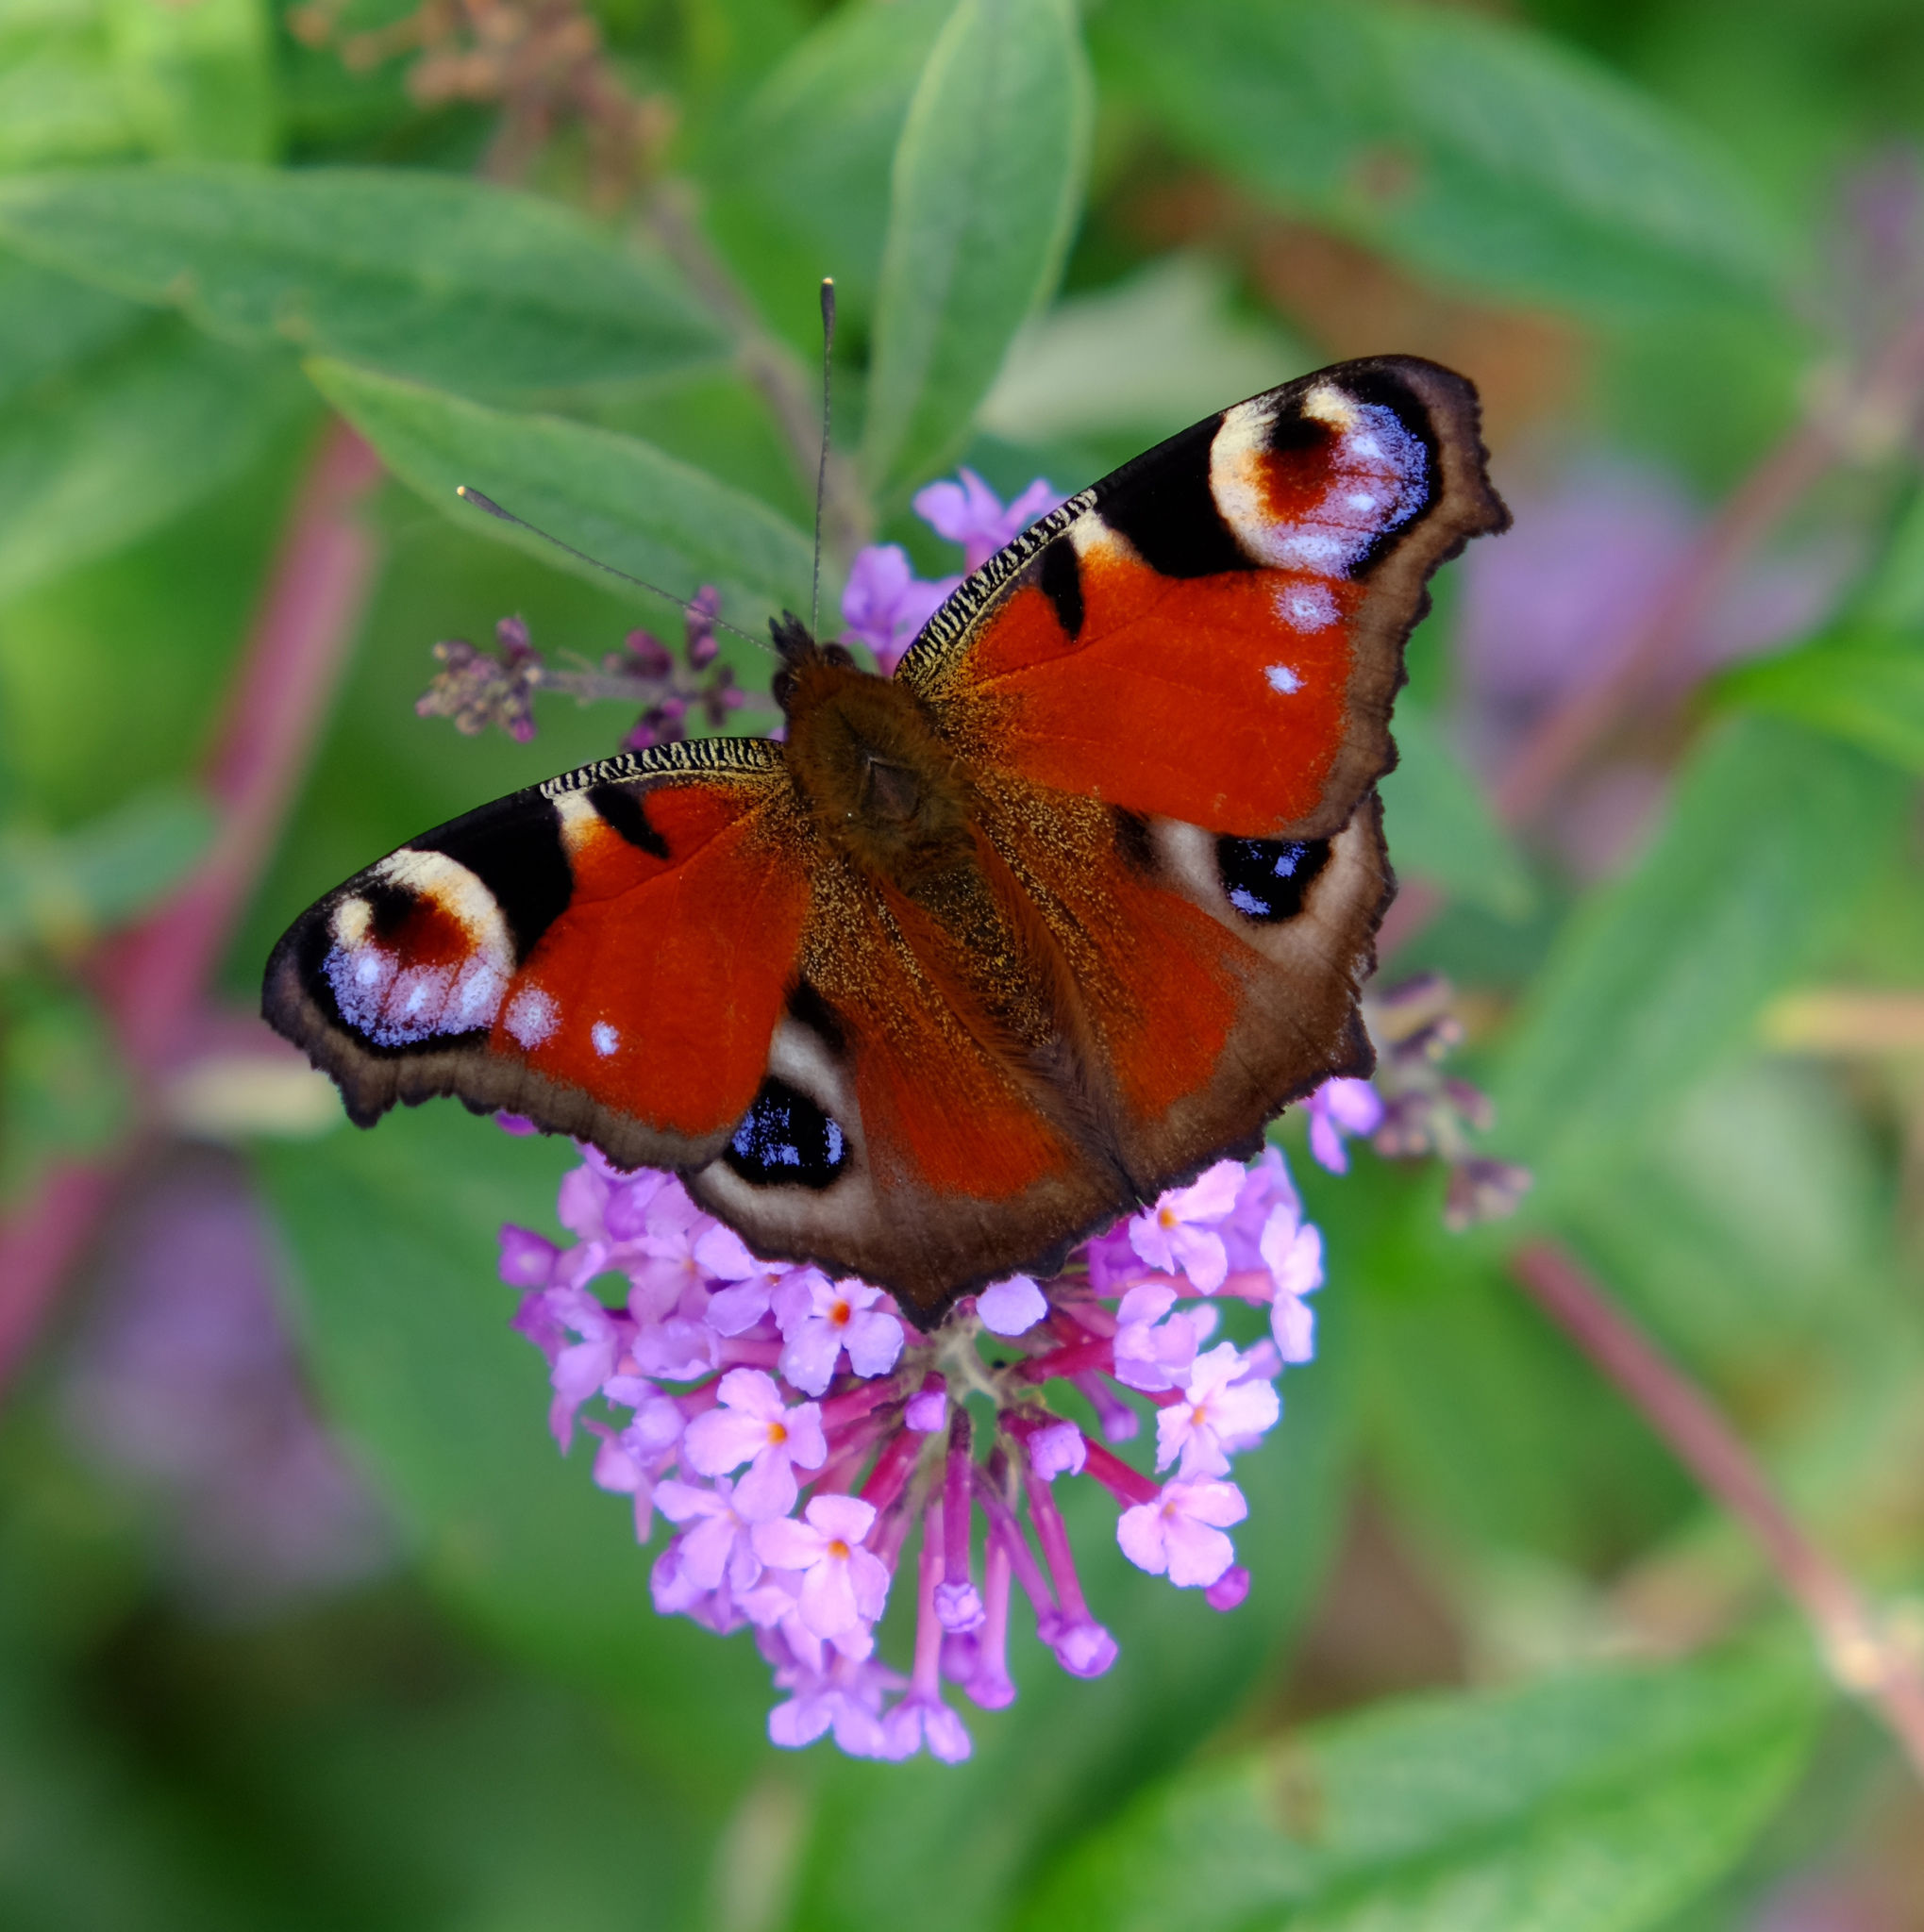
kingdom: Animalia
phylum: Arthropoda
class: Insecta
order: Lepidoptera
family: Nymphalidae
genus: Aglais
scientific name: Aglais io
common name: Peacock
